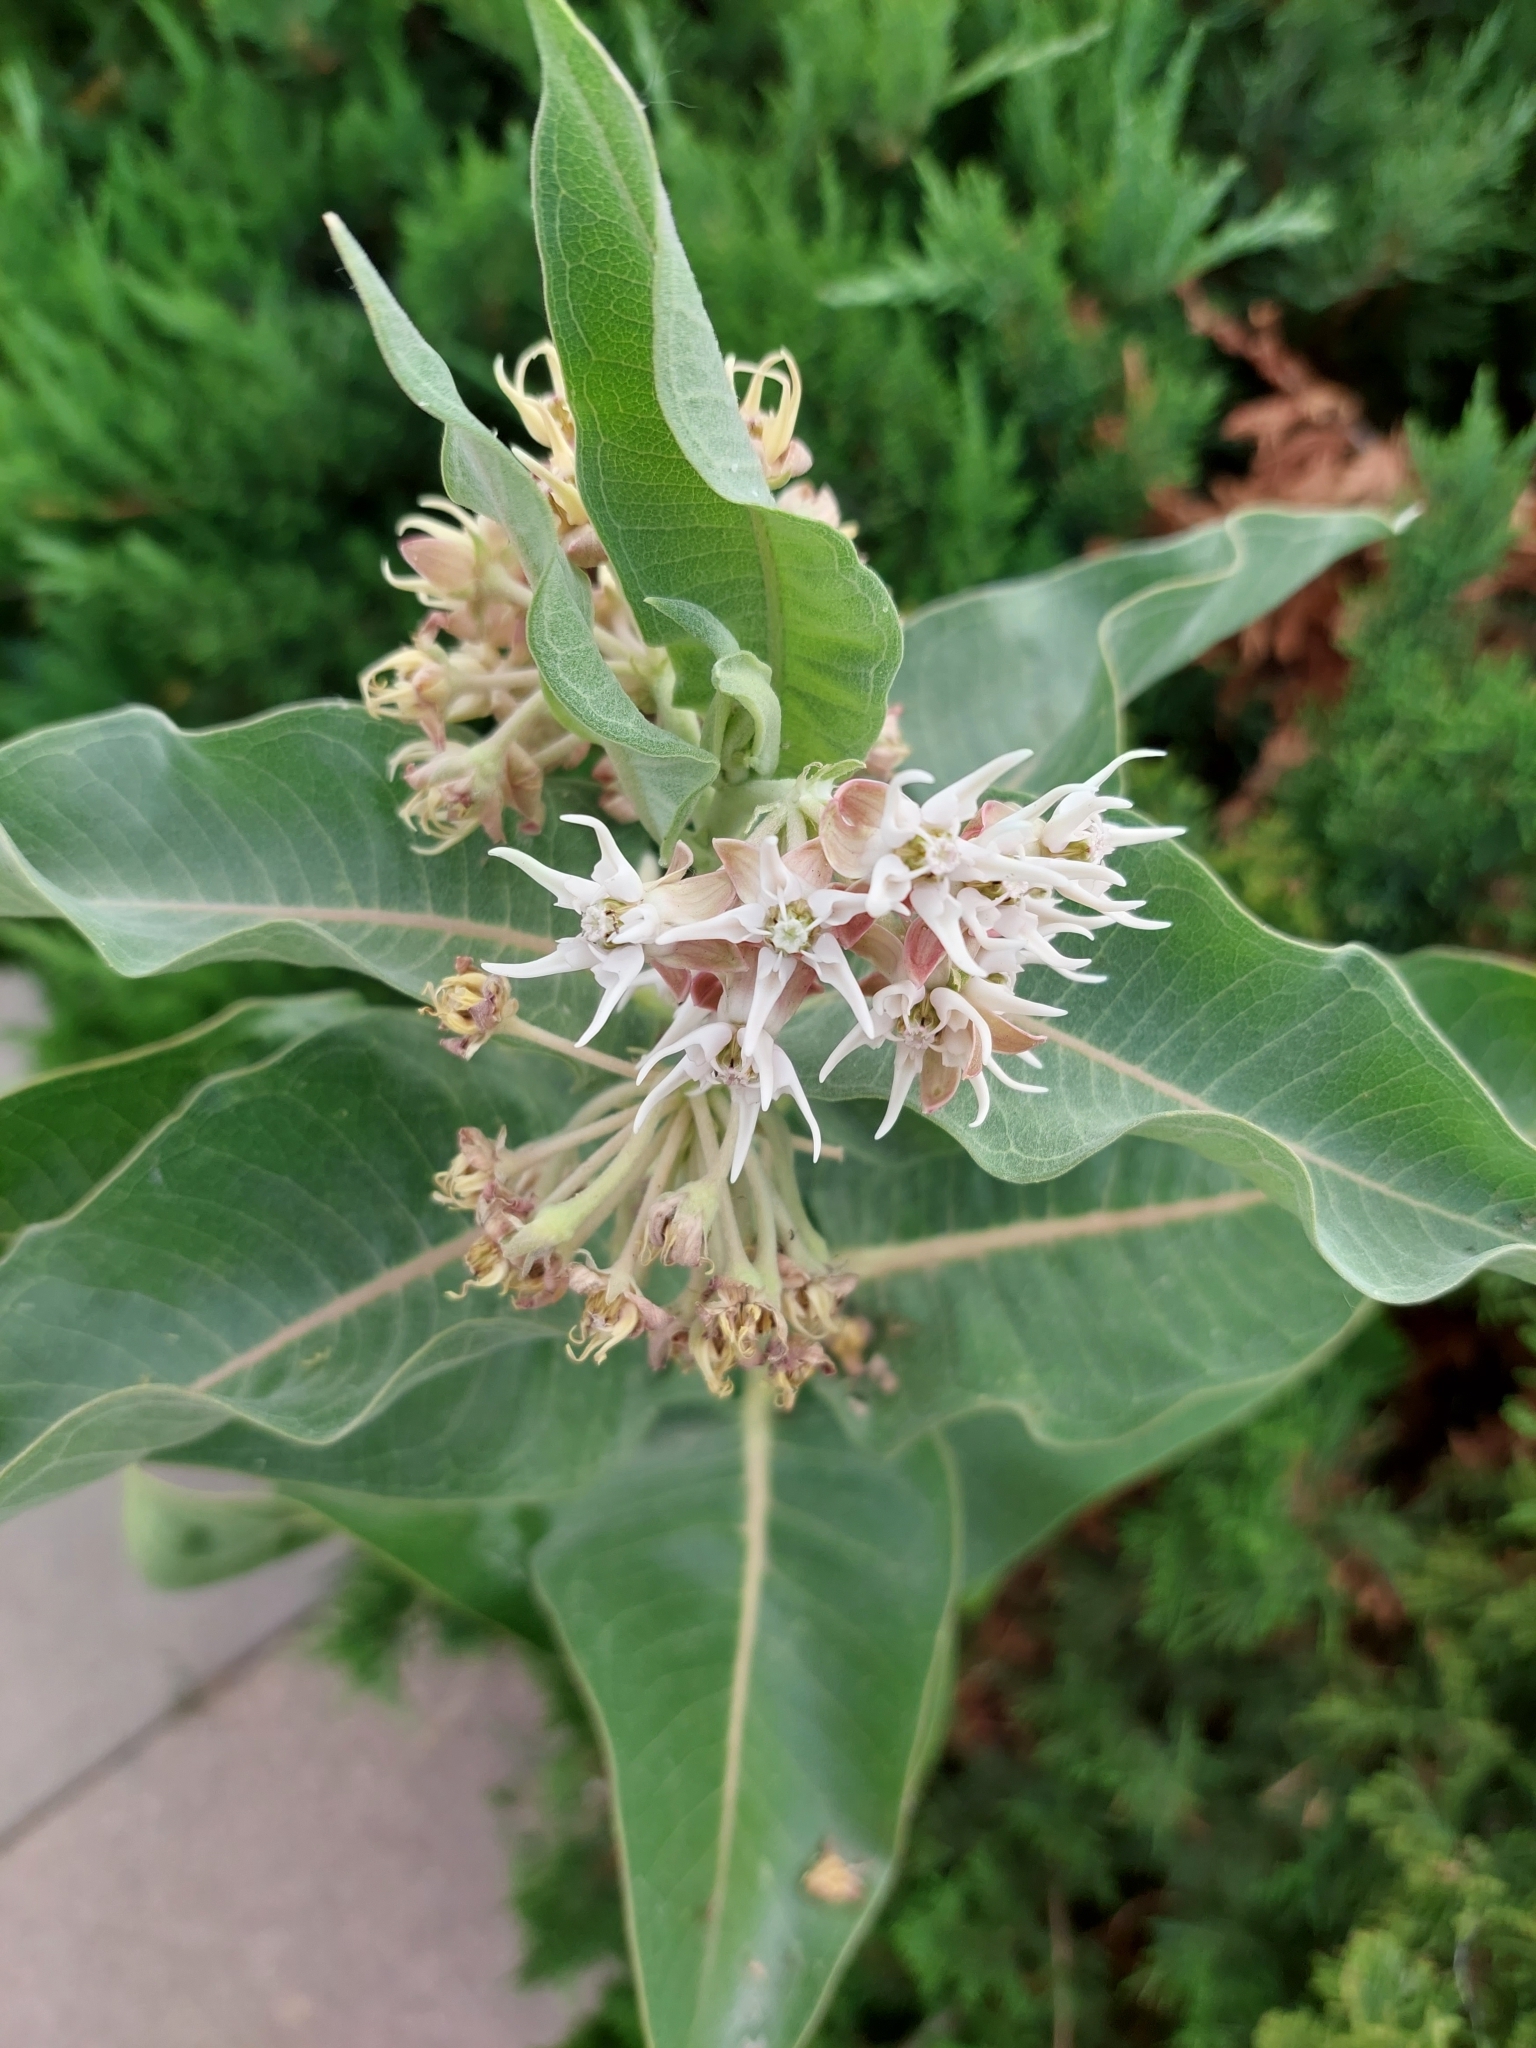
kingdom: Plantae
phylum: Tracheophyta
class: Magnoliopsida
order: Gentianales
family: Apocynaceae
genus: Asclepias
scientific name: Asclepias speciosa
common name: Showy milkweed
